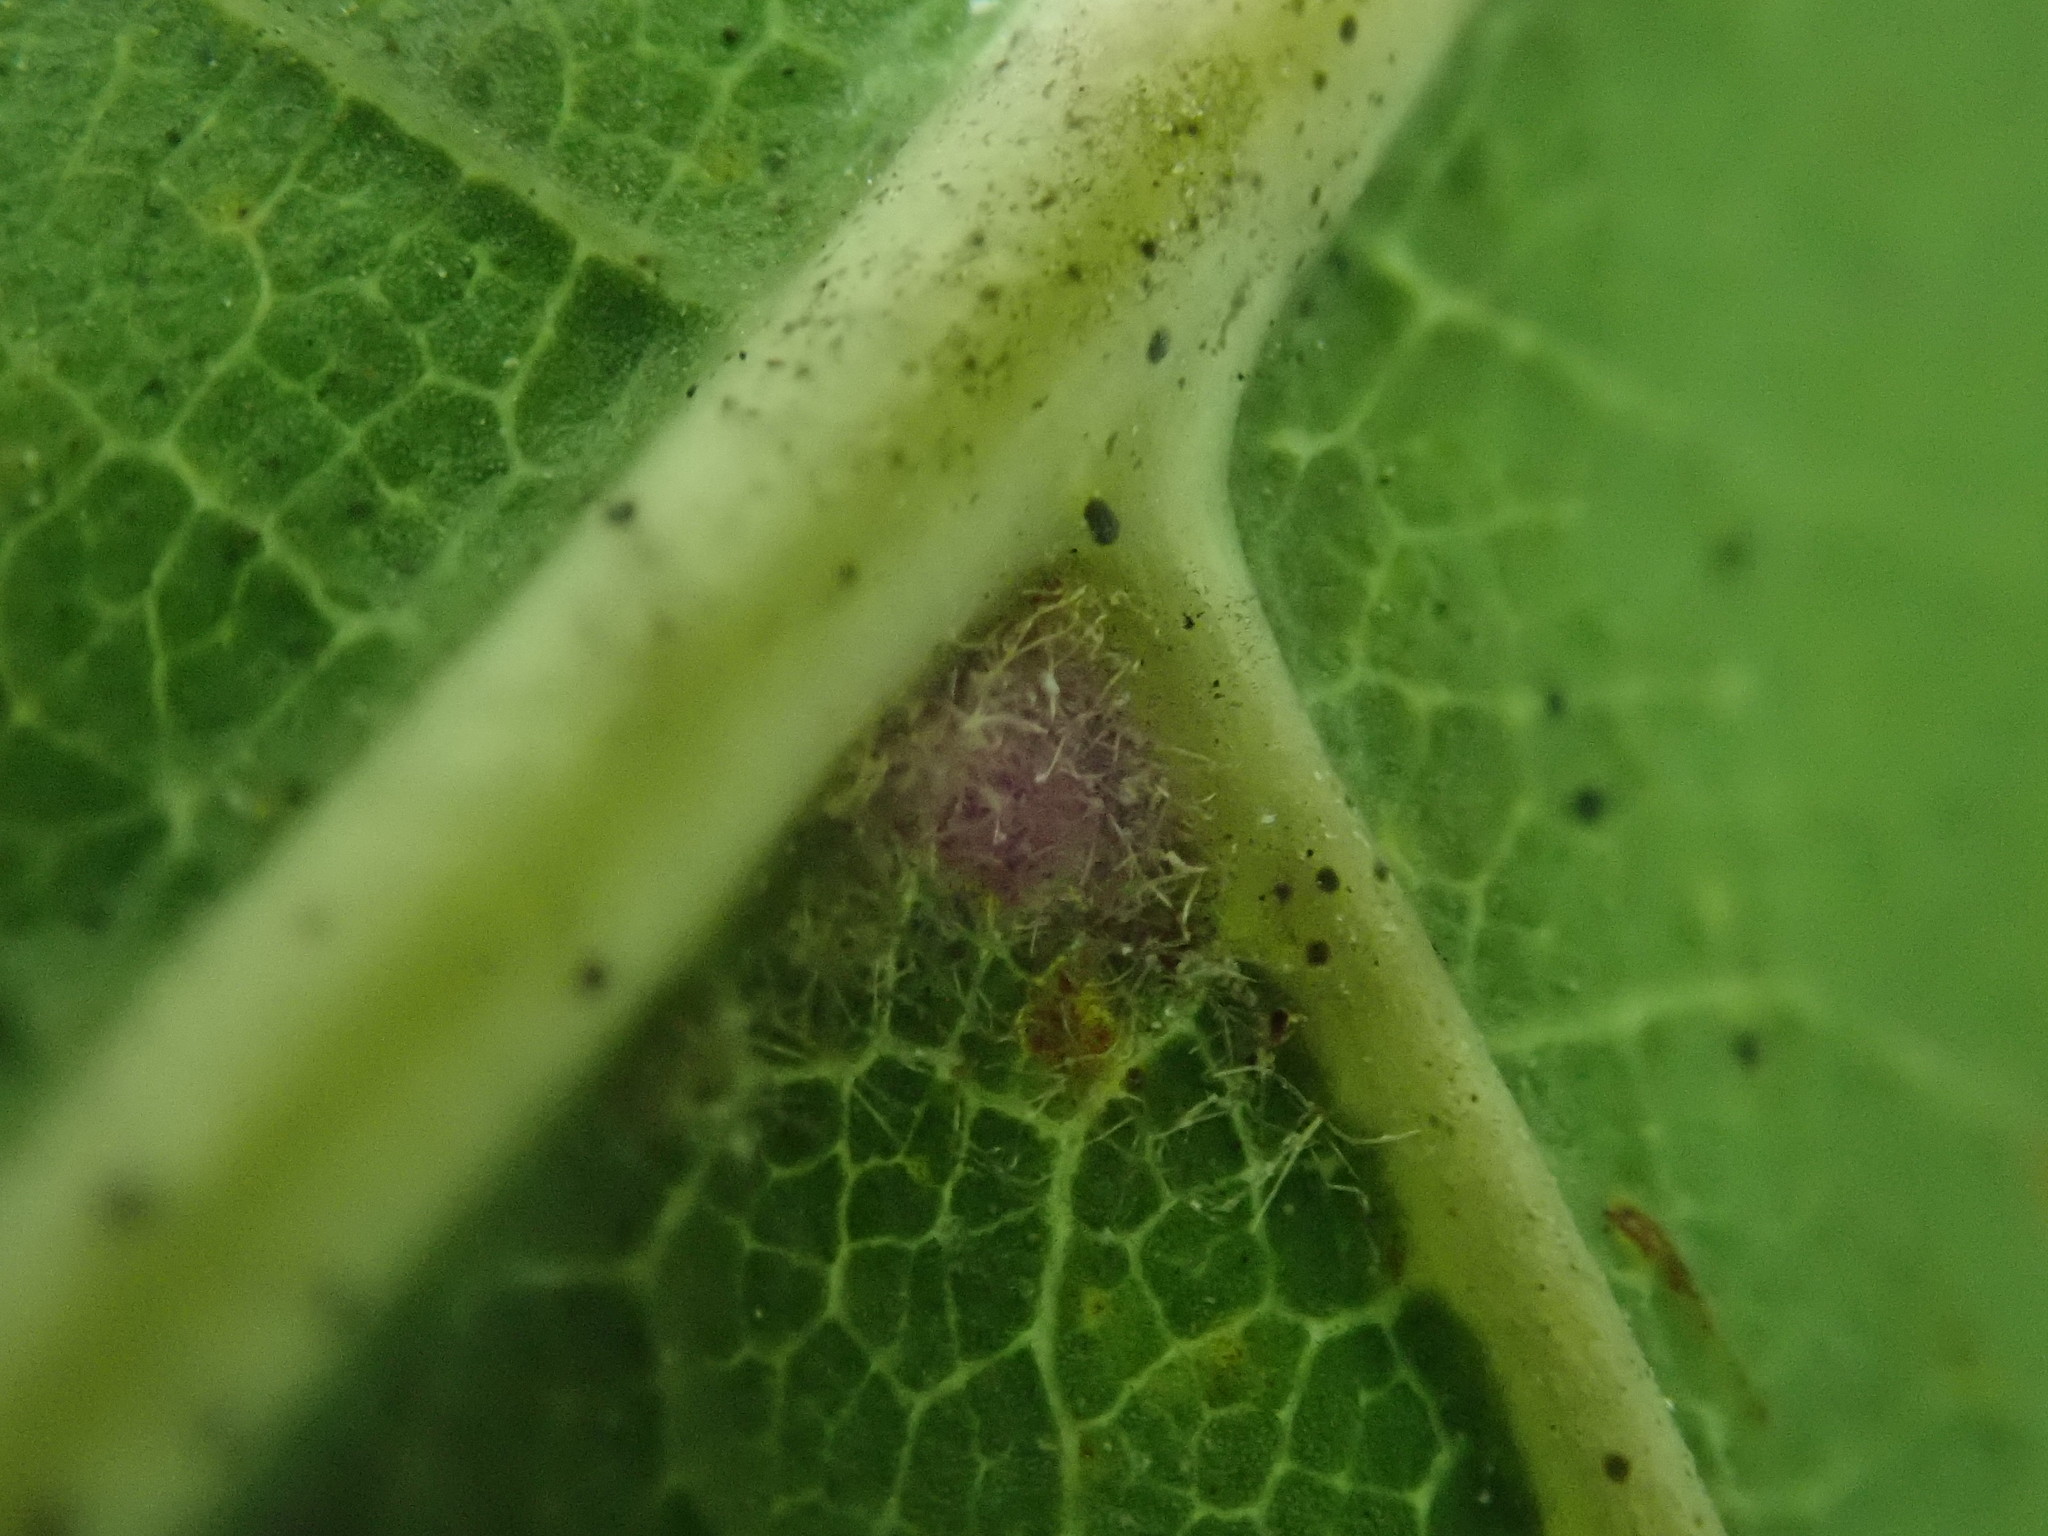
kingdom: Plantae
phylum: Tracheophyta
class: Magnoliopsida
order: Fagales
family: Fagaceae
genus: Quercus
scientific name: Quercus velutina
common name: Black oak
